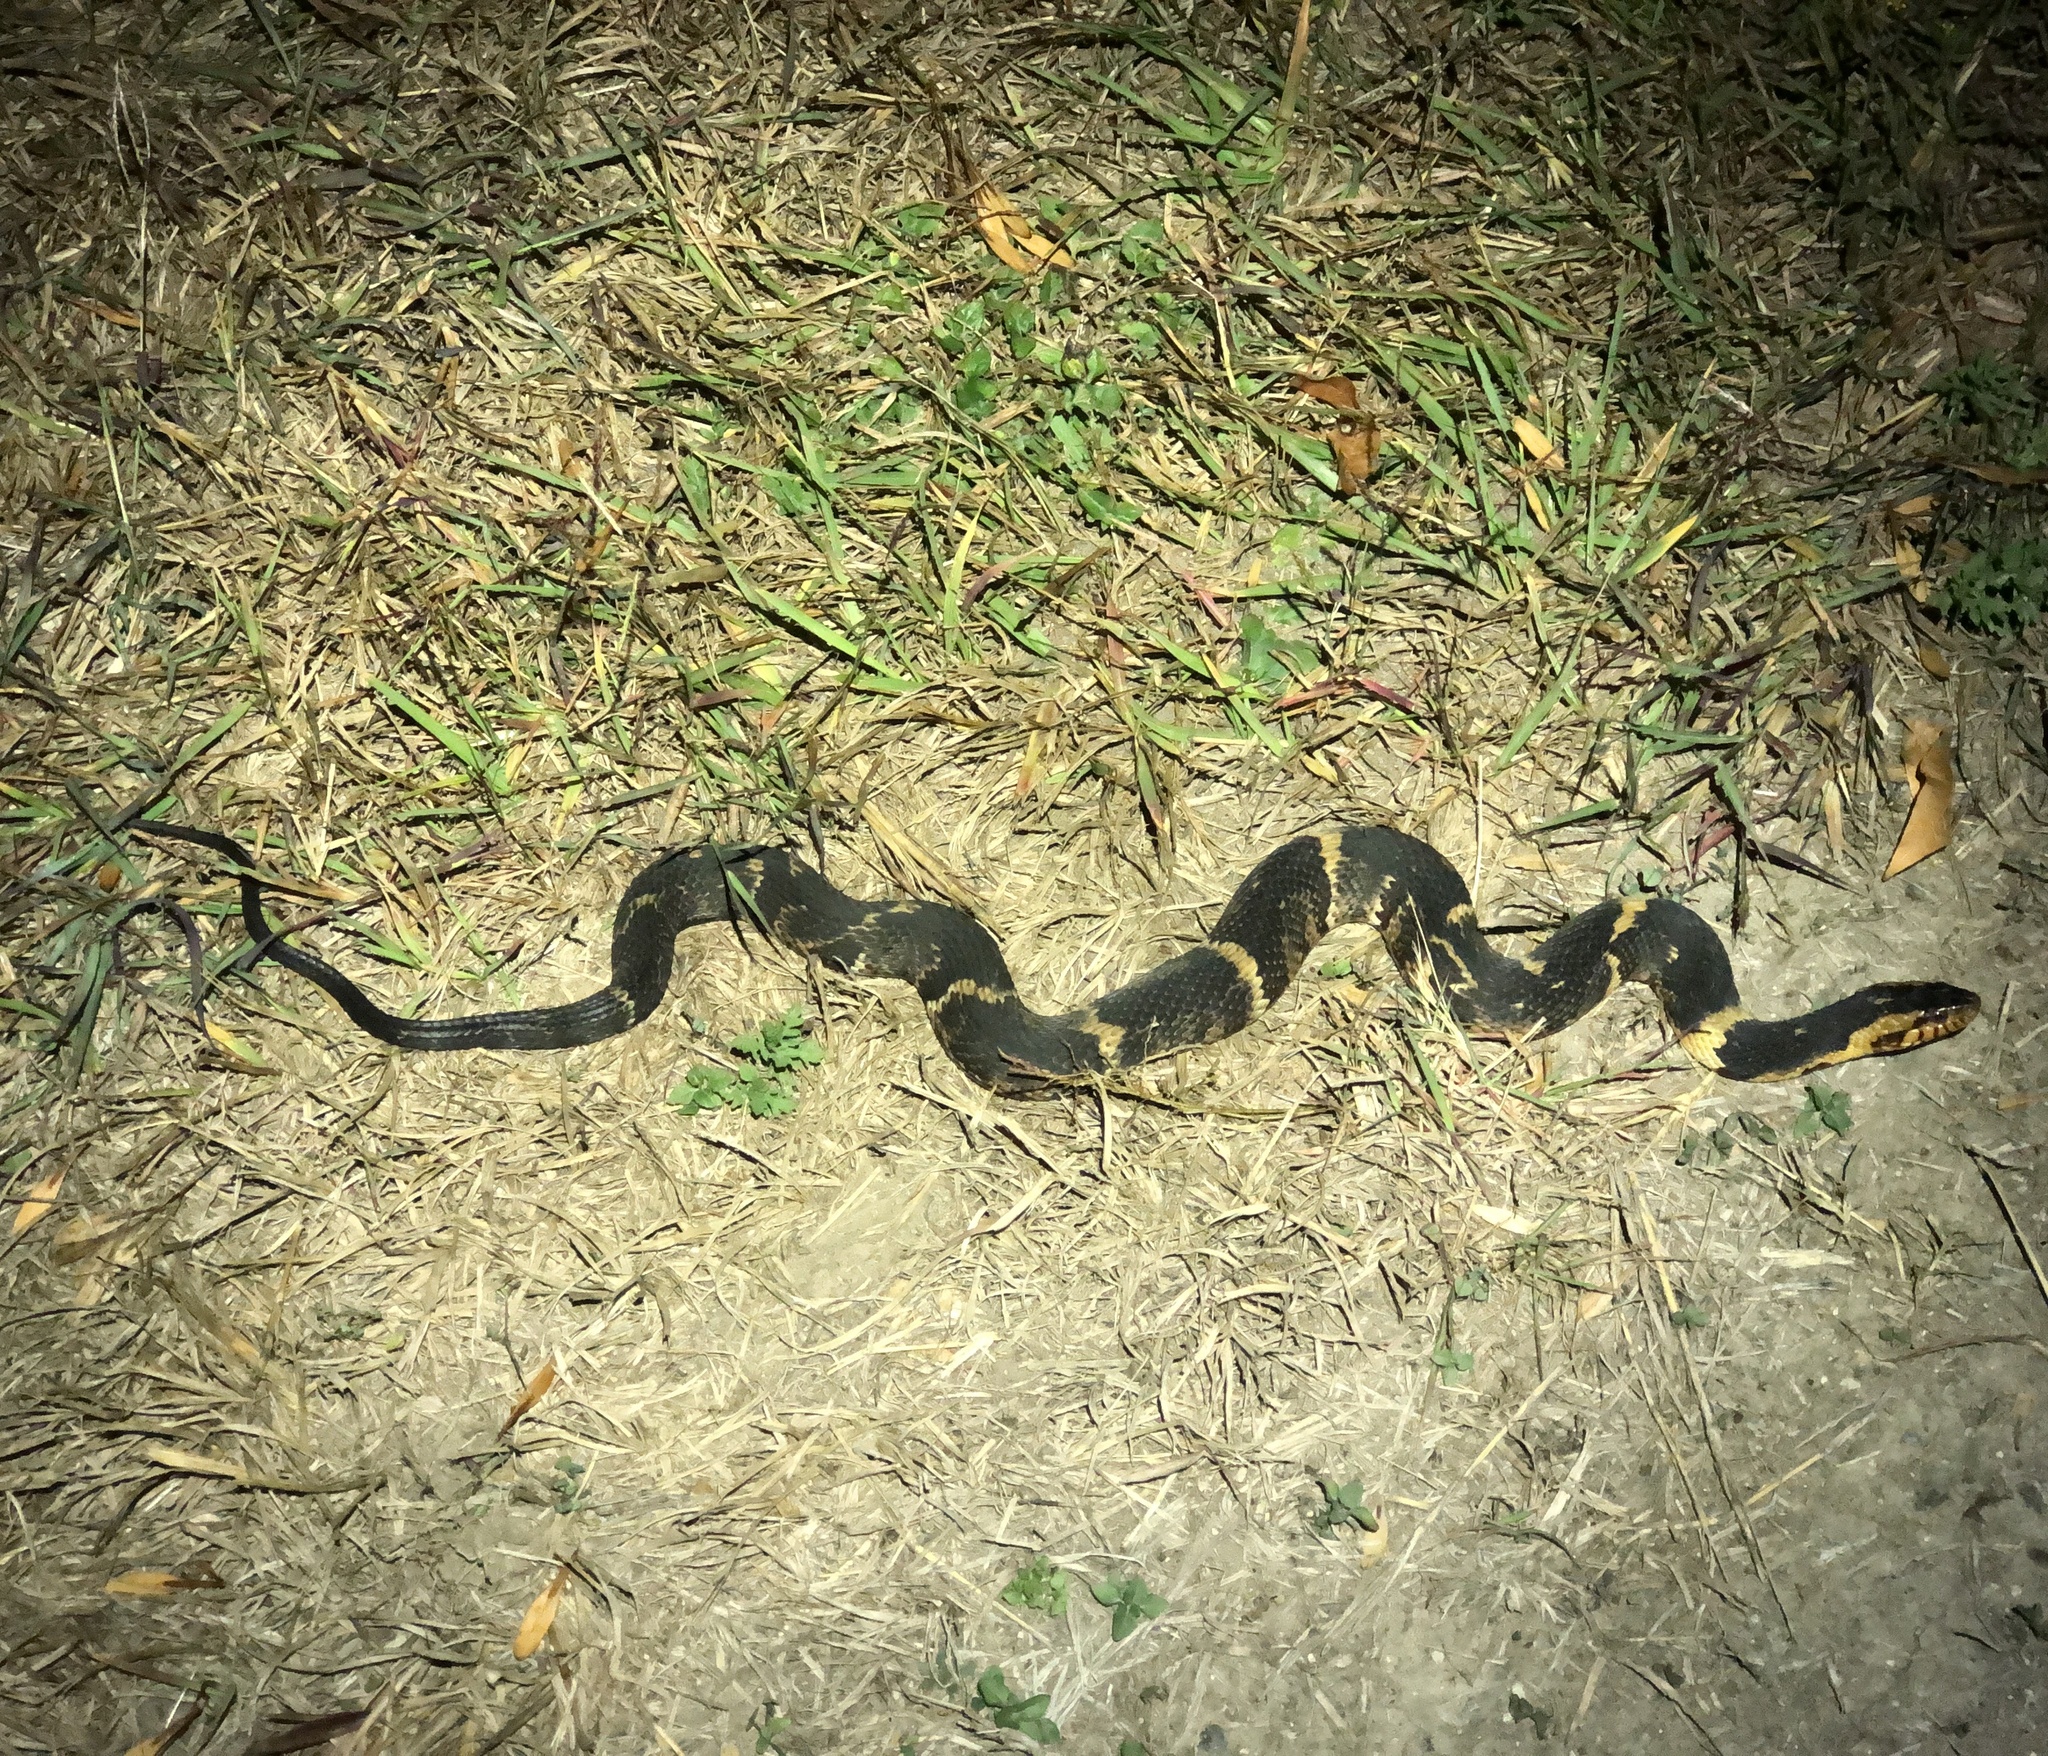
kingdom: Animalia
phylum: Chordata
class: Squamata
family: Colubridae
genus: Nerodia
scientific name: Nerodia fasciata
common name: Southern water snake
